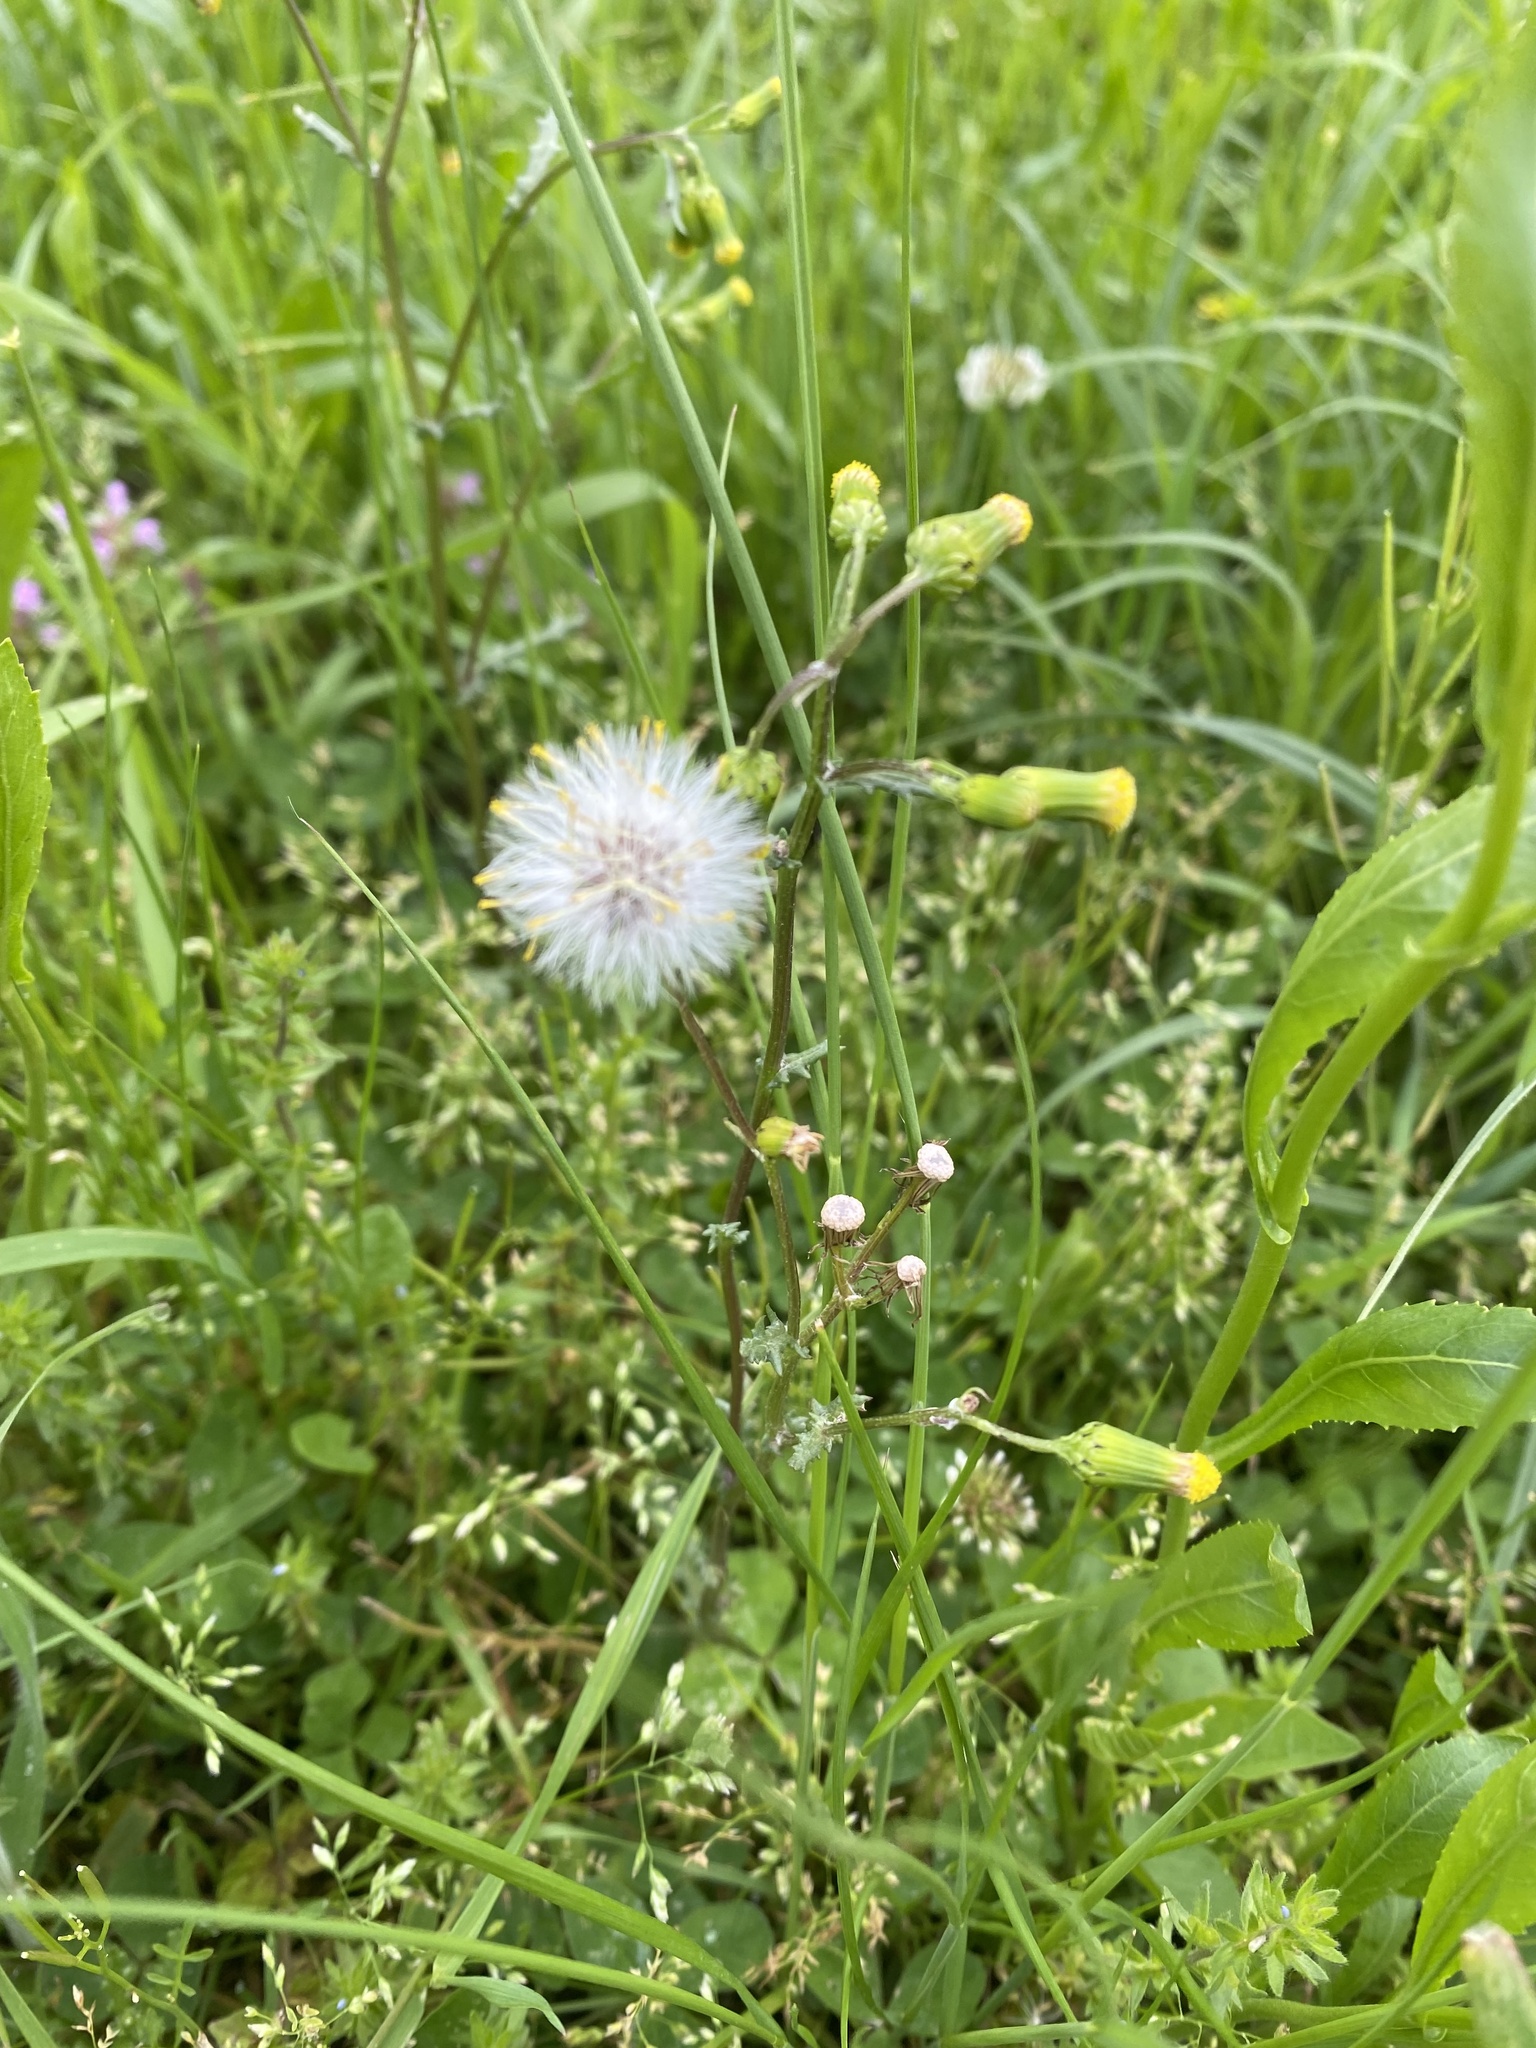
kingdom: Plantae
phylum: Tracheophyta
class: Magnoliopsida
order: Asterales
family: Asteraceae
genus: Senecio
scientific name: Senecio vulgaris
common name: Old-man-in-the-spring
